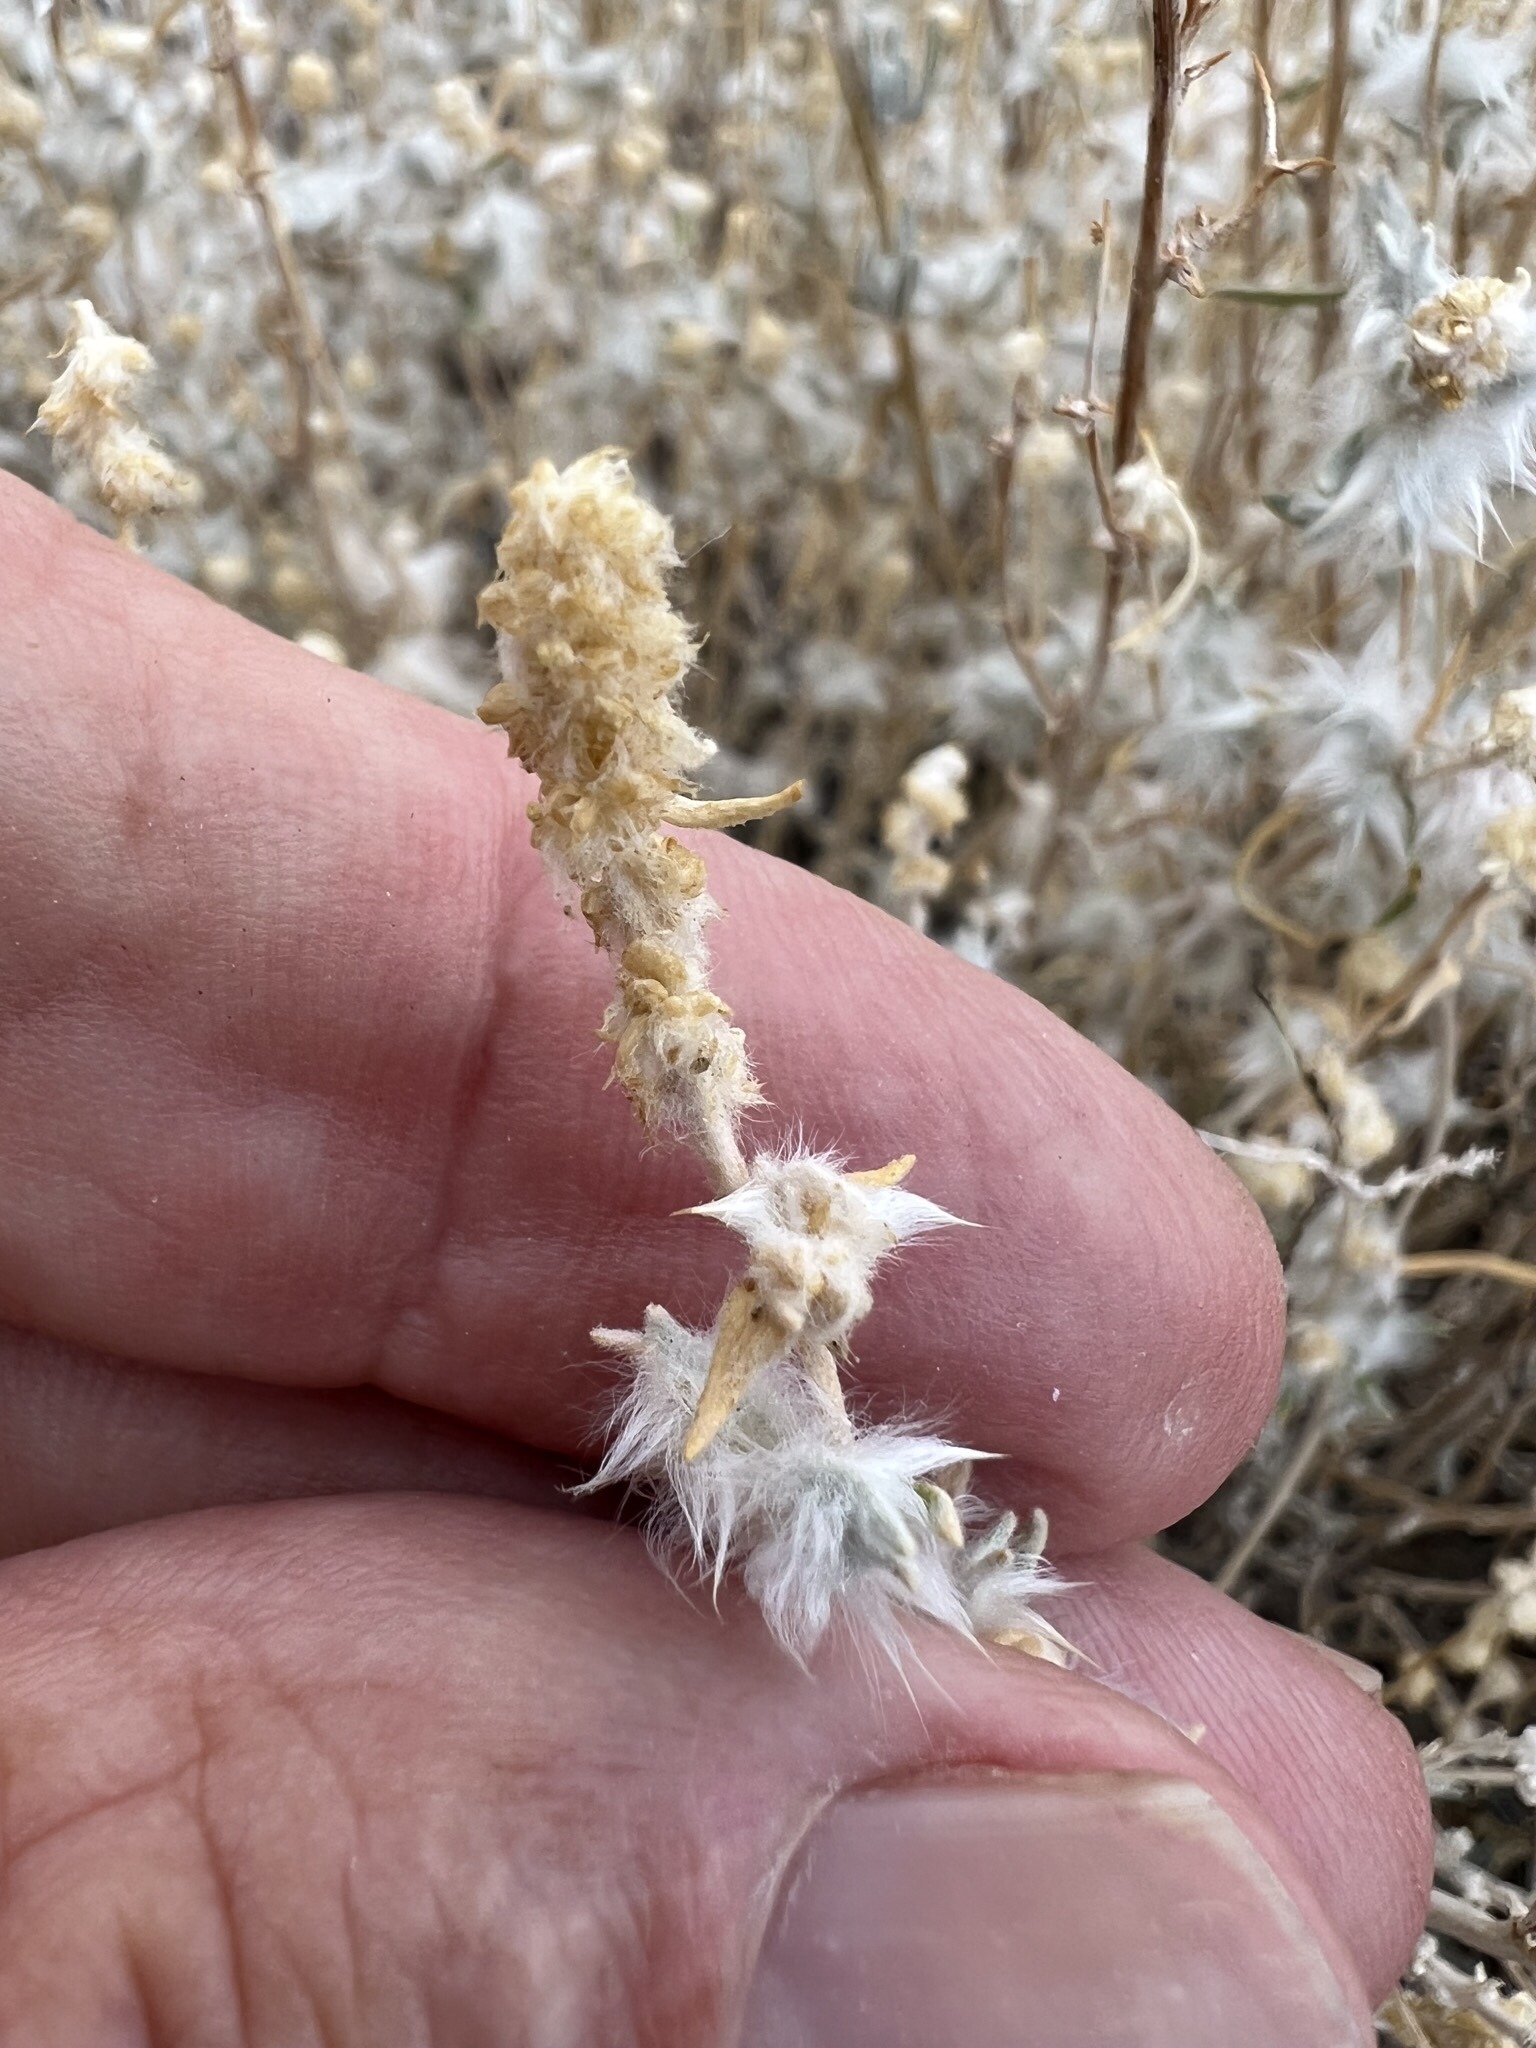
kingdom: Plantae
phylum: Tracheophyta
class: Magnoliopsida
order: Caryophyllales
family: Amaranthaceae
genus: Krascheninnikovia
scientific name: Krascheninnikovia lanata
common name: Winterfat
